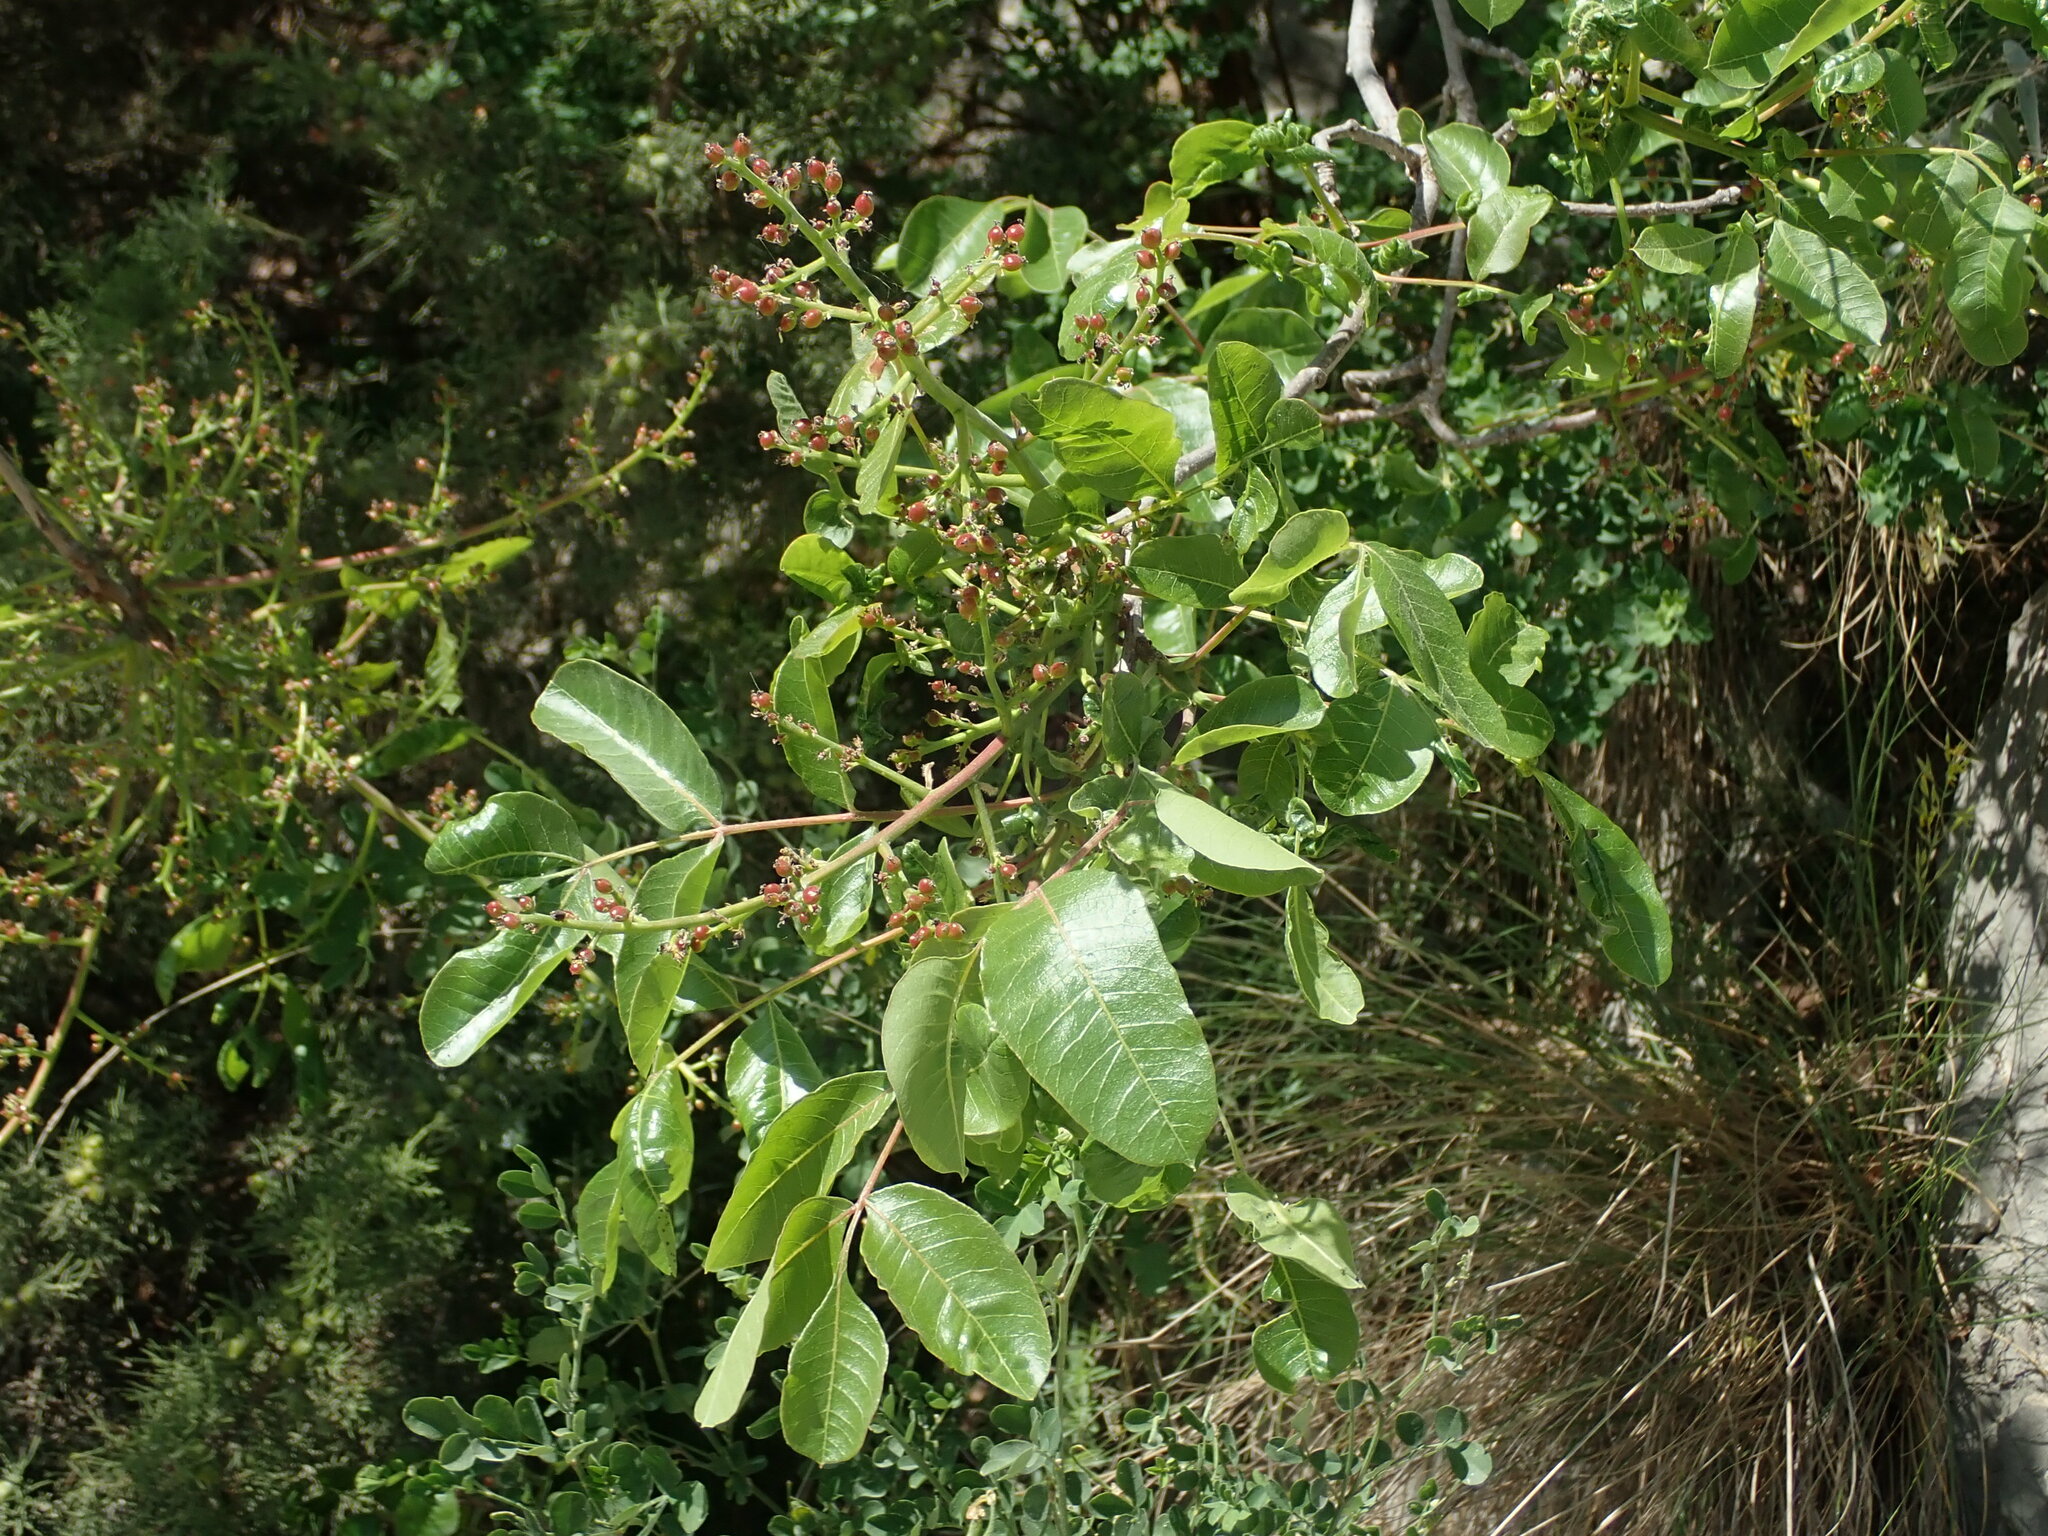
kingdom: Plantae
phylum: Tracheophyta
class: Magnoliopsida
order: Sapindales
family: Anacardiaceae
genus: Pistacia
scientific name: Pistacia terebinthus
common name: Terebinth
